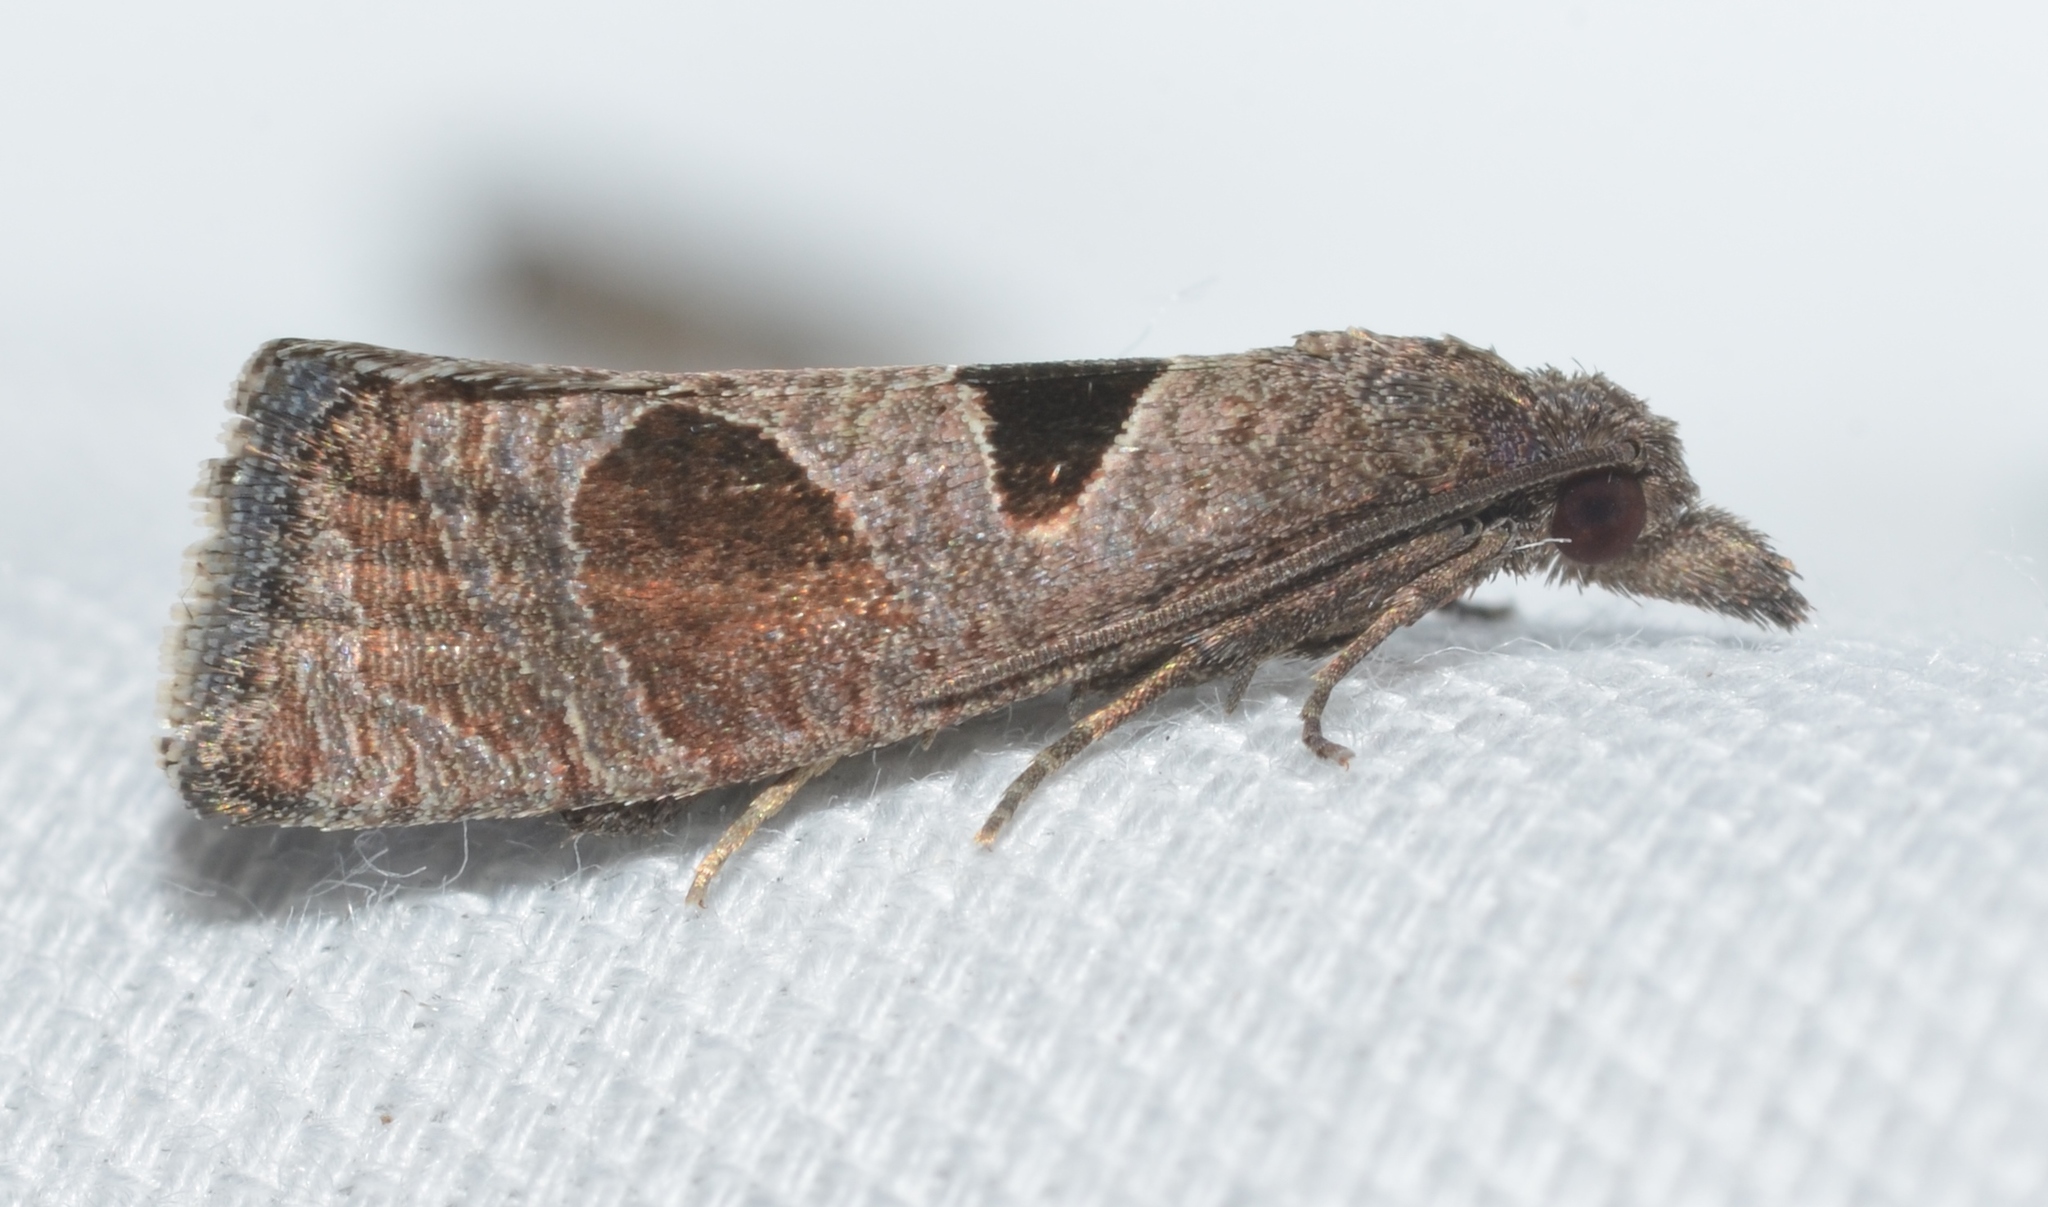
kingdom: Animalia
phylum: Arthropoda
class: Insecta
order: Lepidoptera
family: Tortricidae
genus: Pelochrista
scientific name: Pelochrista dorsisignatana
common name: Triangle-backed pelochrista moth
